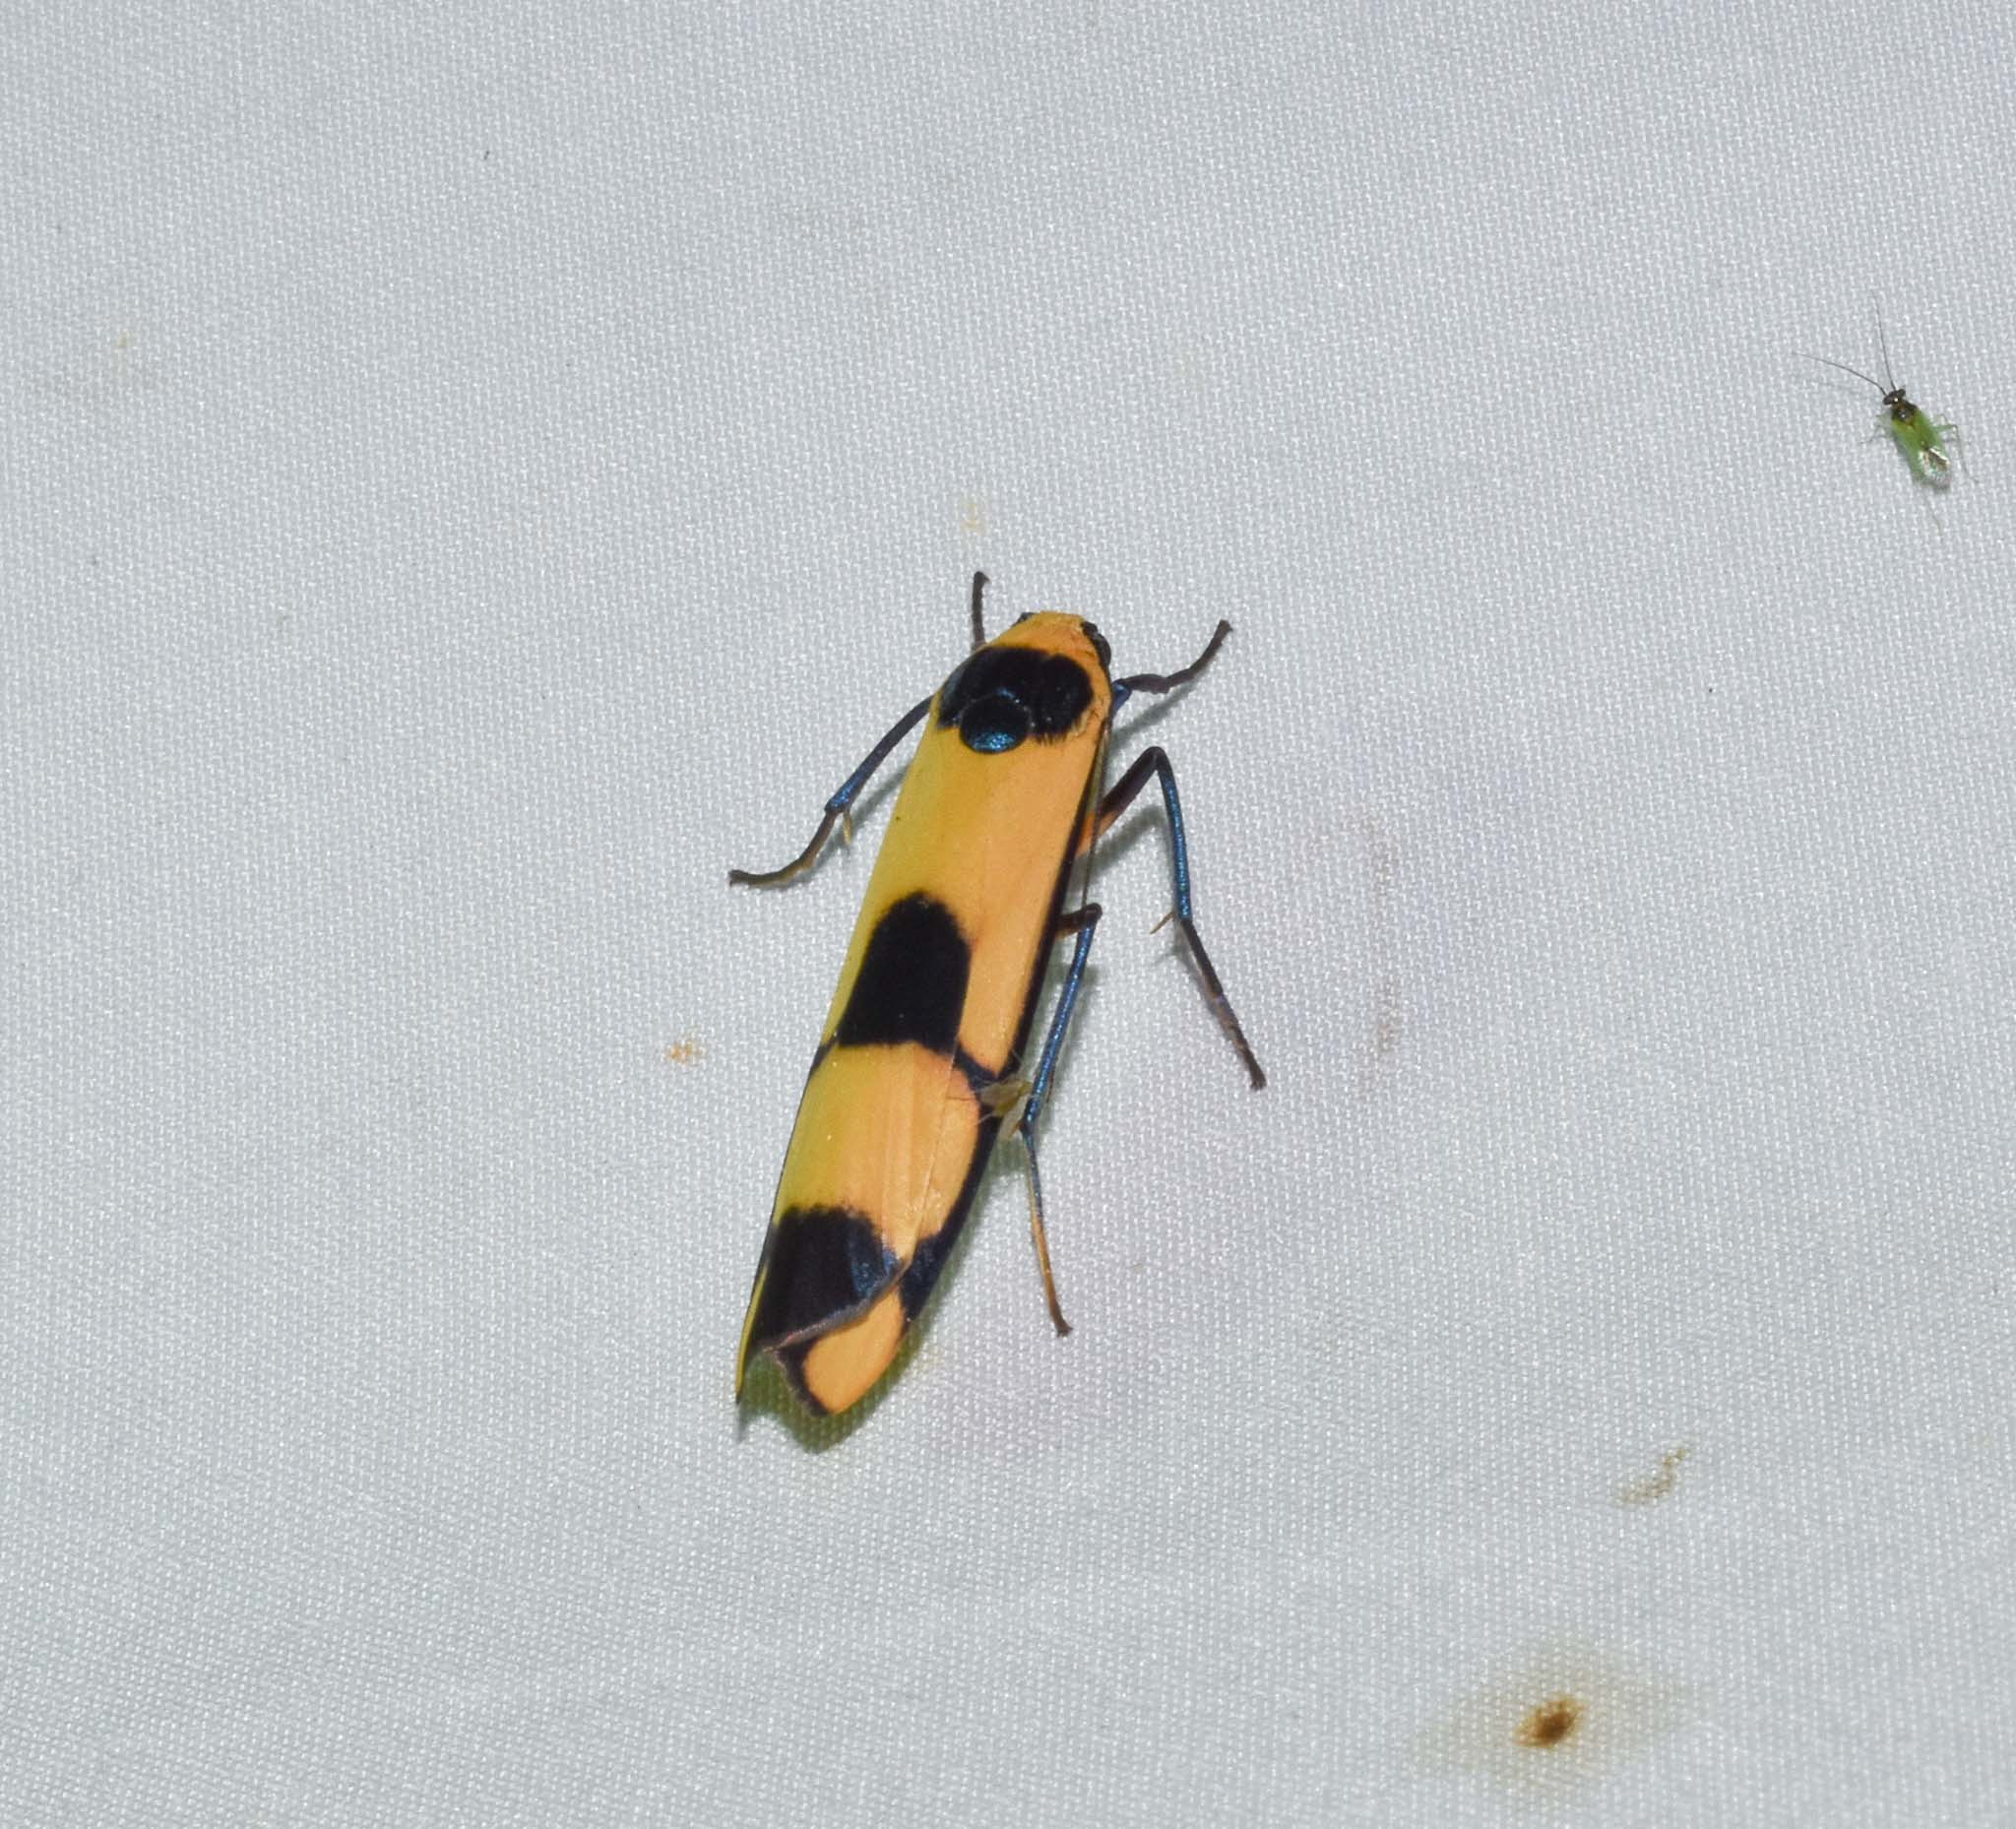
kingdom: Animalia
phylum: Arthropoda
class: Insecta
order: Lepidoptera
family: Erebidae
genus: Oeonistis
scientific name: Oeonistis altica
